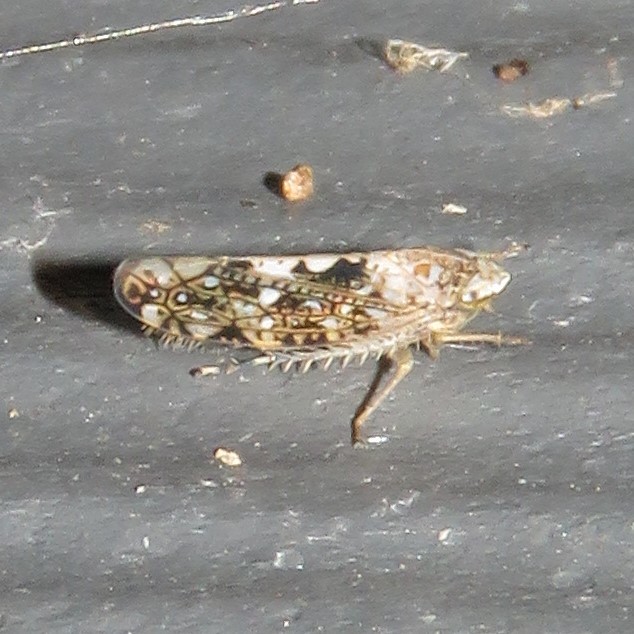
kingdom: Animalia
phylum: Arthropoda
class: Insecta
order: Hemiptera
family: Cicadellidae
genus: Prescottia
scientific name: Prescottia lobata
